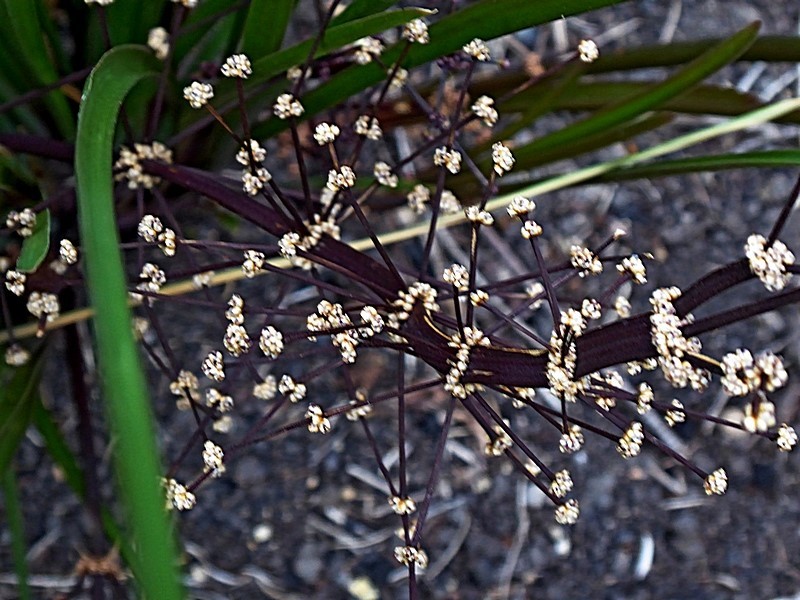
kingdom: Plantae
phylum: Tracheophyta
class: Liliopsida
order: Asparagales
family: Asparagaceae
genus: Lomandra
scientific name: Lomandra multiflora
